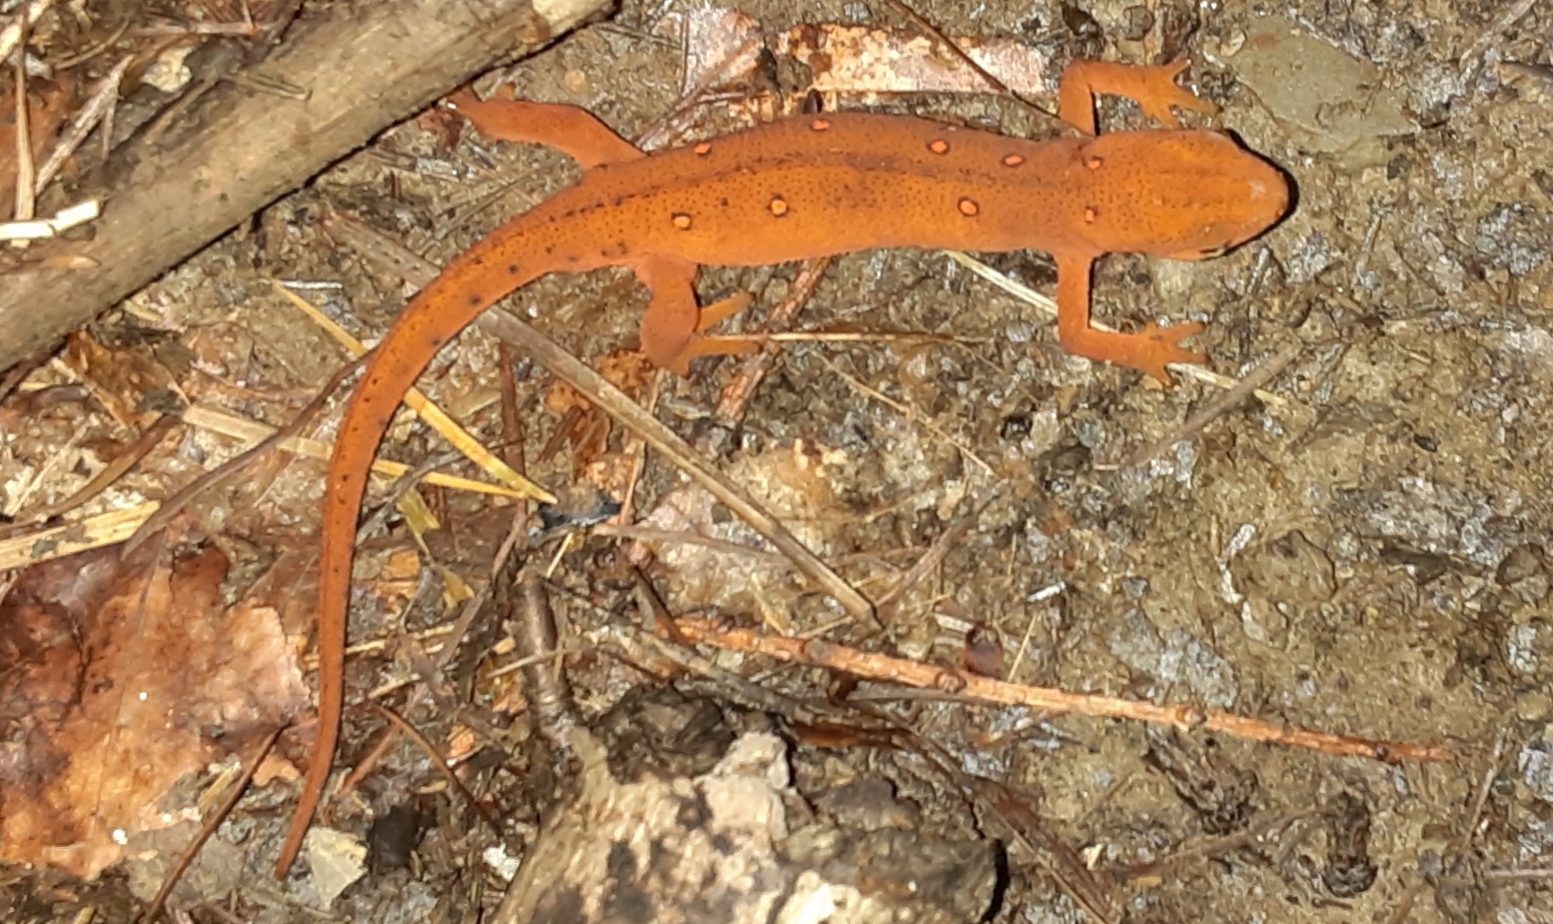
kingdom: Animalia
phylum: Chordata
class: Amphibia
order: Caudata
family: Salamandridae
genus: Notophthalmus
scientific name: Notophthalmus viridescens
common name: Eastern newt
